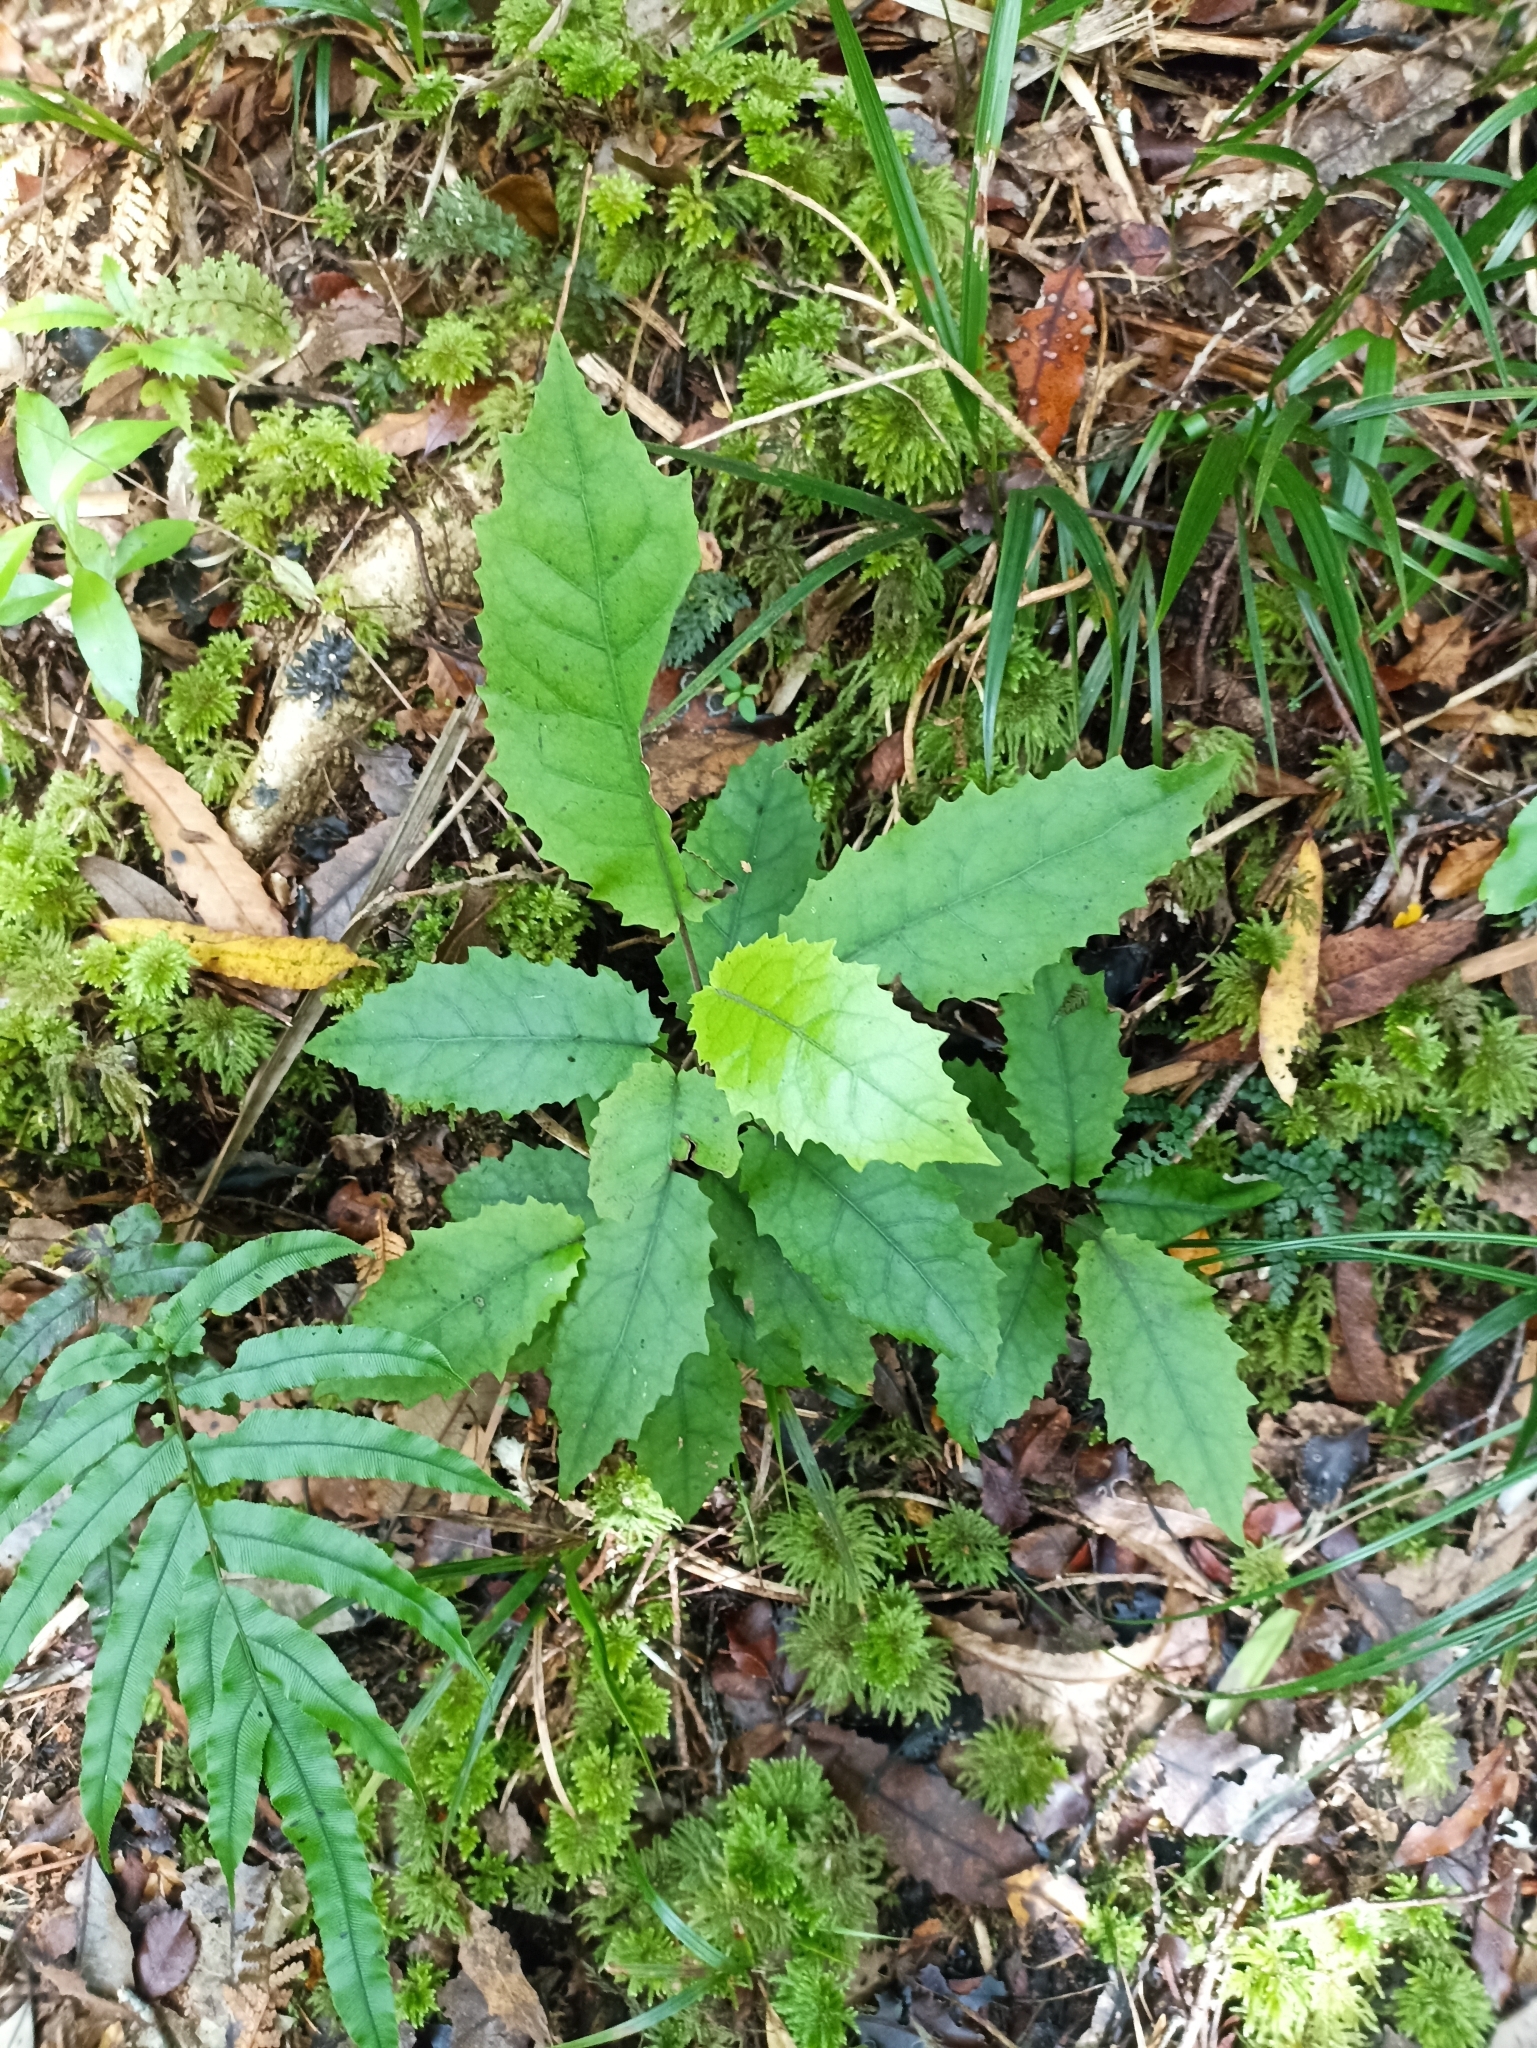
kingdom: Plantae
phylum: Tracheophyta
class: Magnoliopsida
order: Asterales
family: Asteraceae
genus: Brachyglottis
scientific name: Brachyglottis myrianthos
